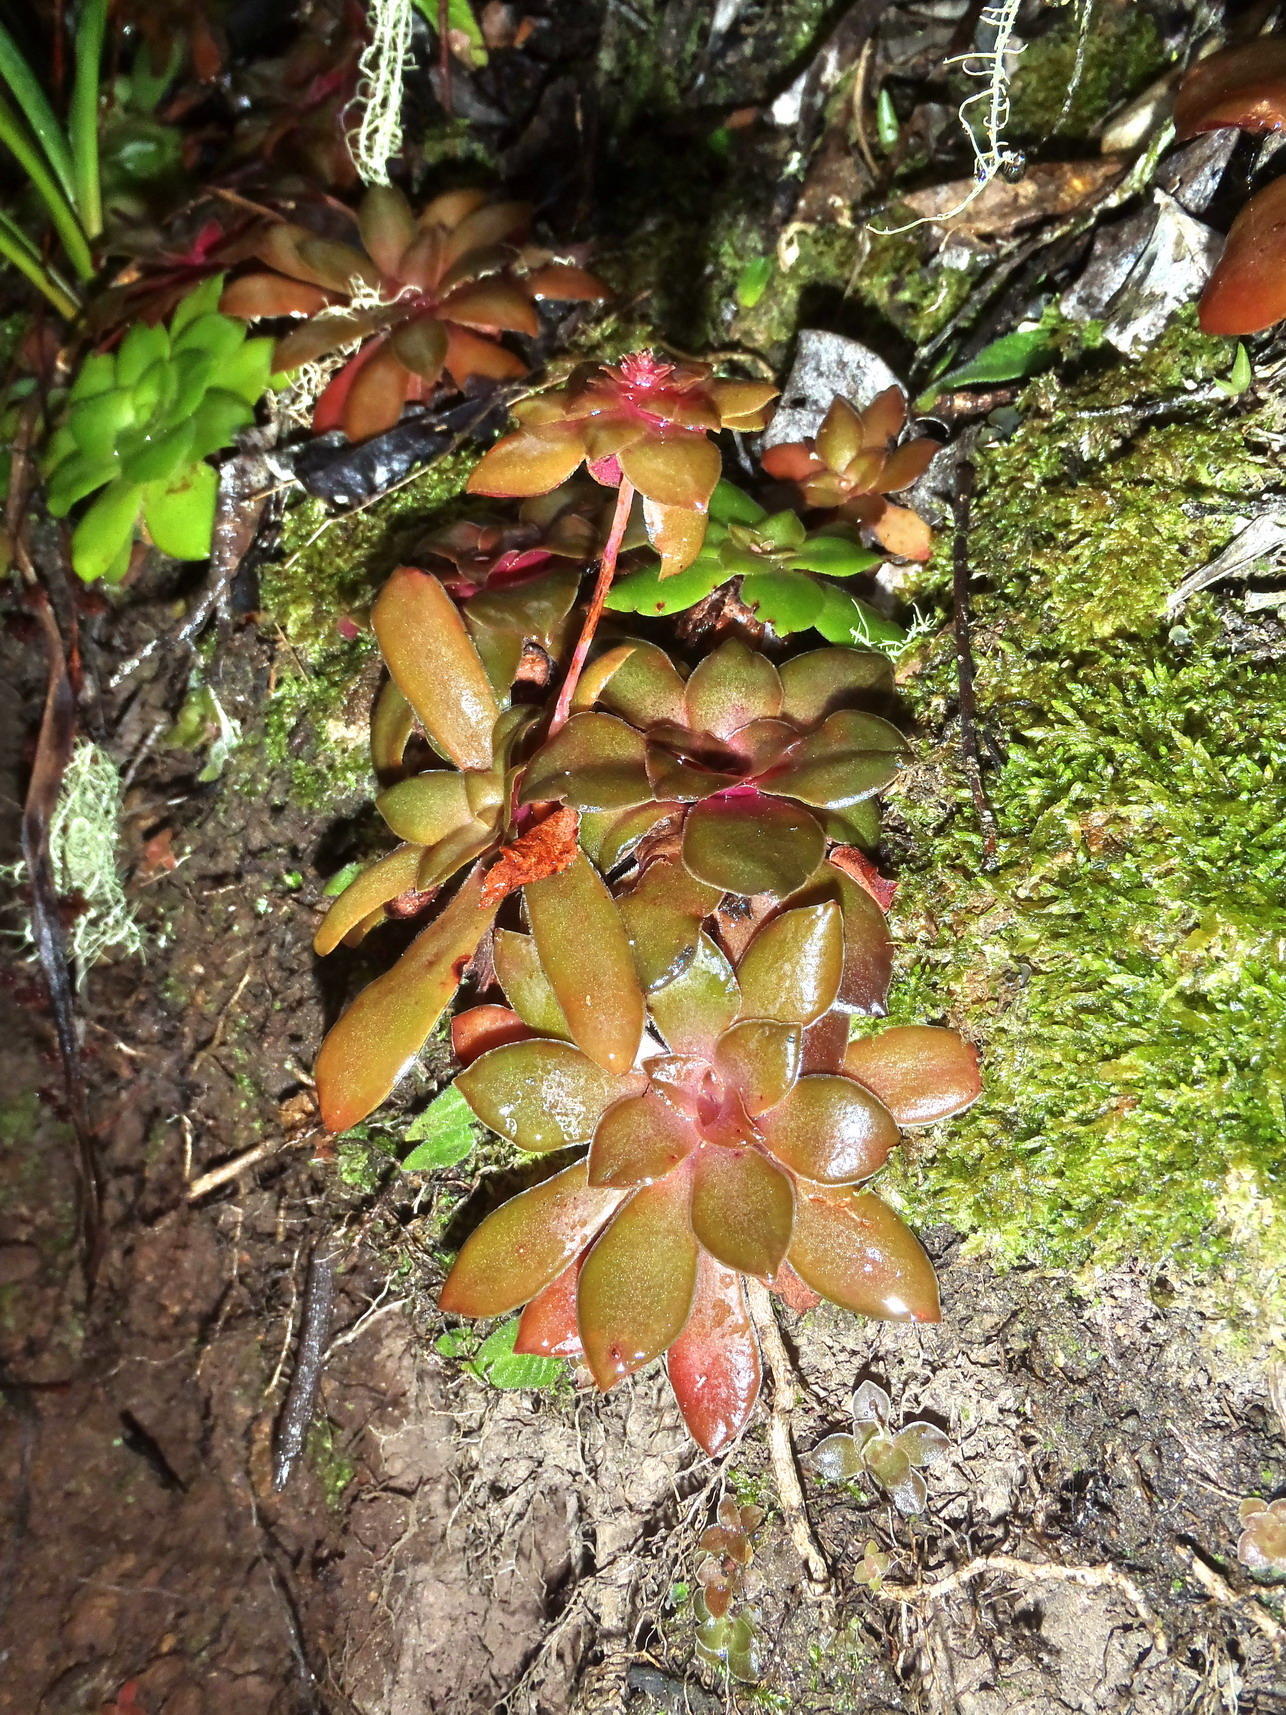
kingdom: Plantae
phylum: Tracheophyta
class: Magnoliopsida
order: Saxifragales
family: Crassulaceae
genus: Crassula
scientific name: Crassula orbicularis
